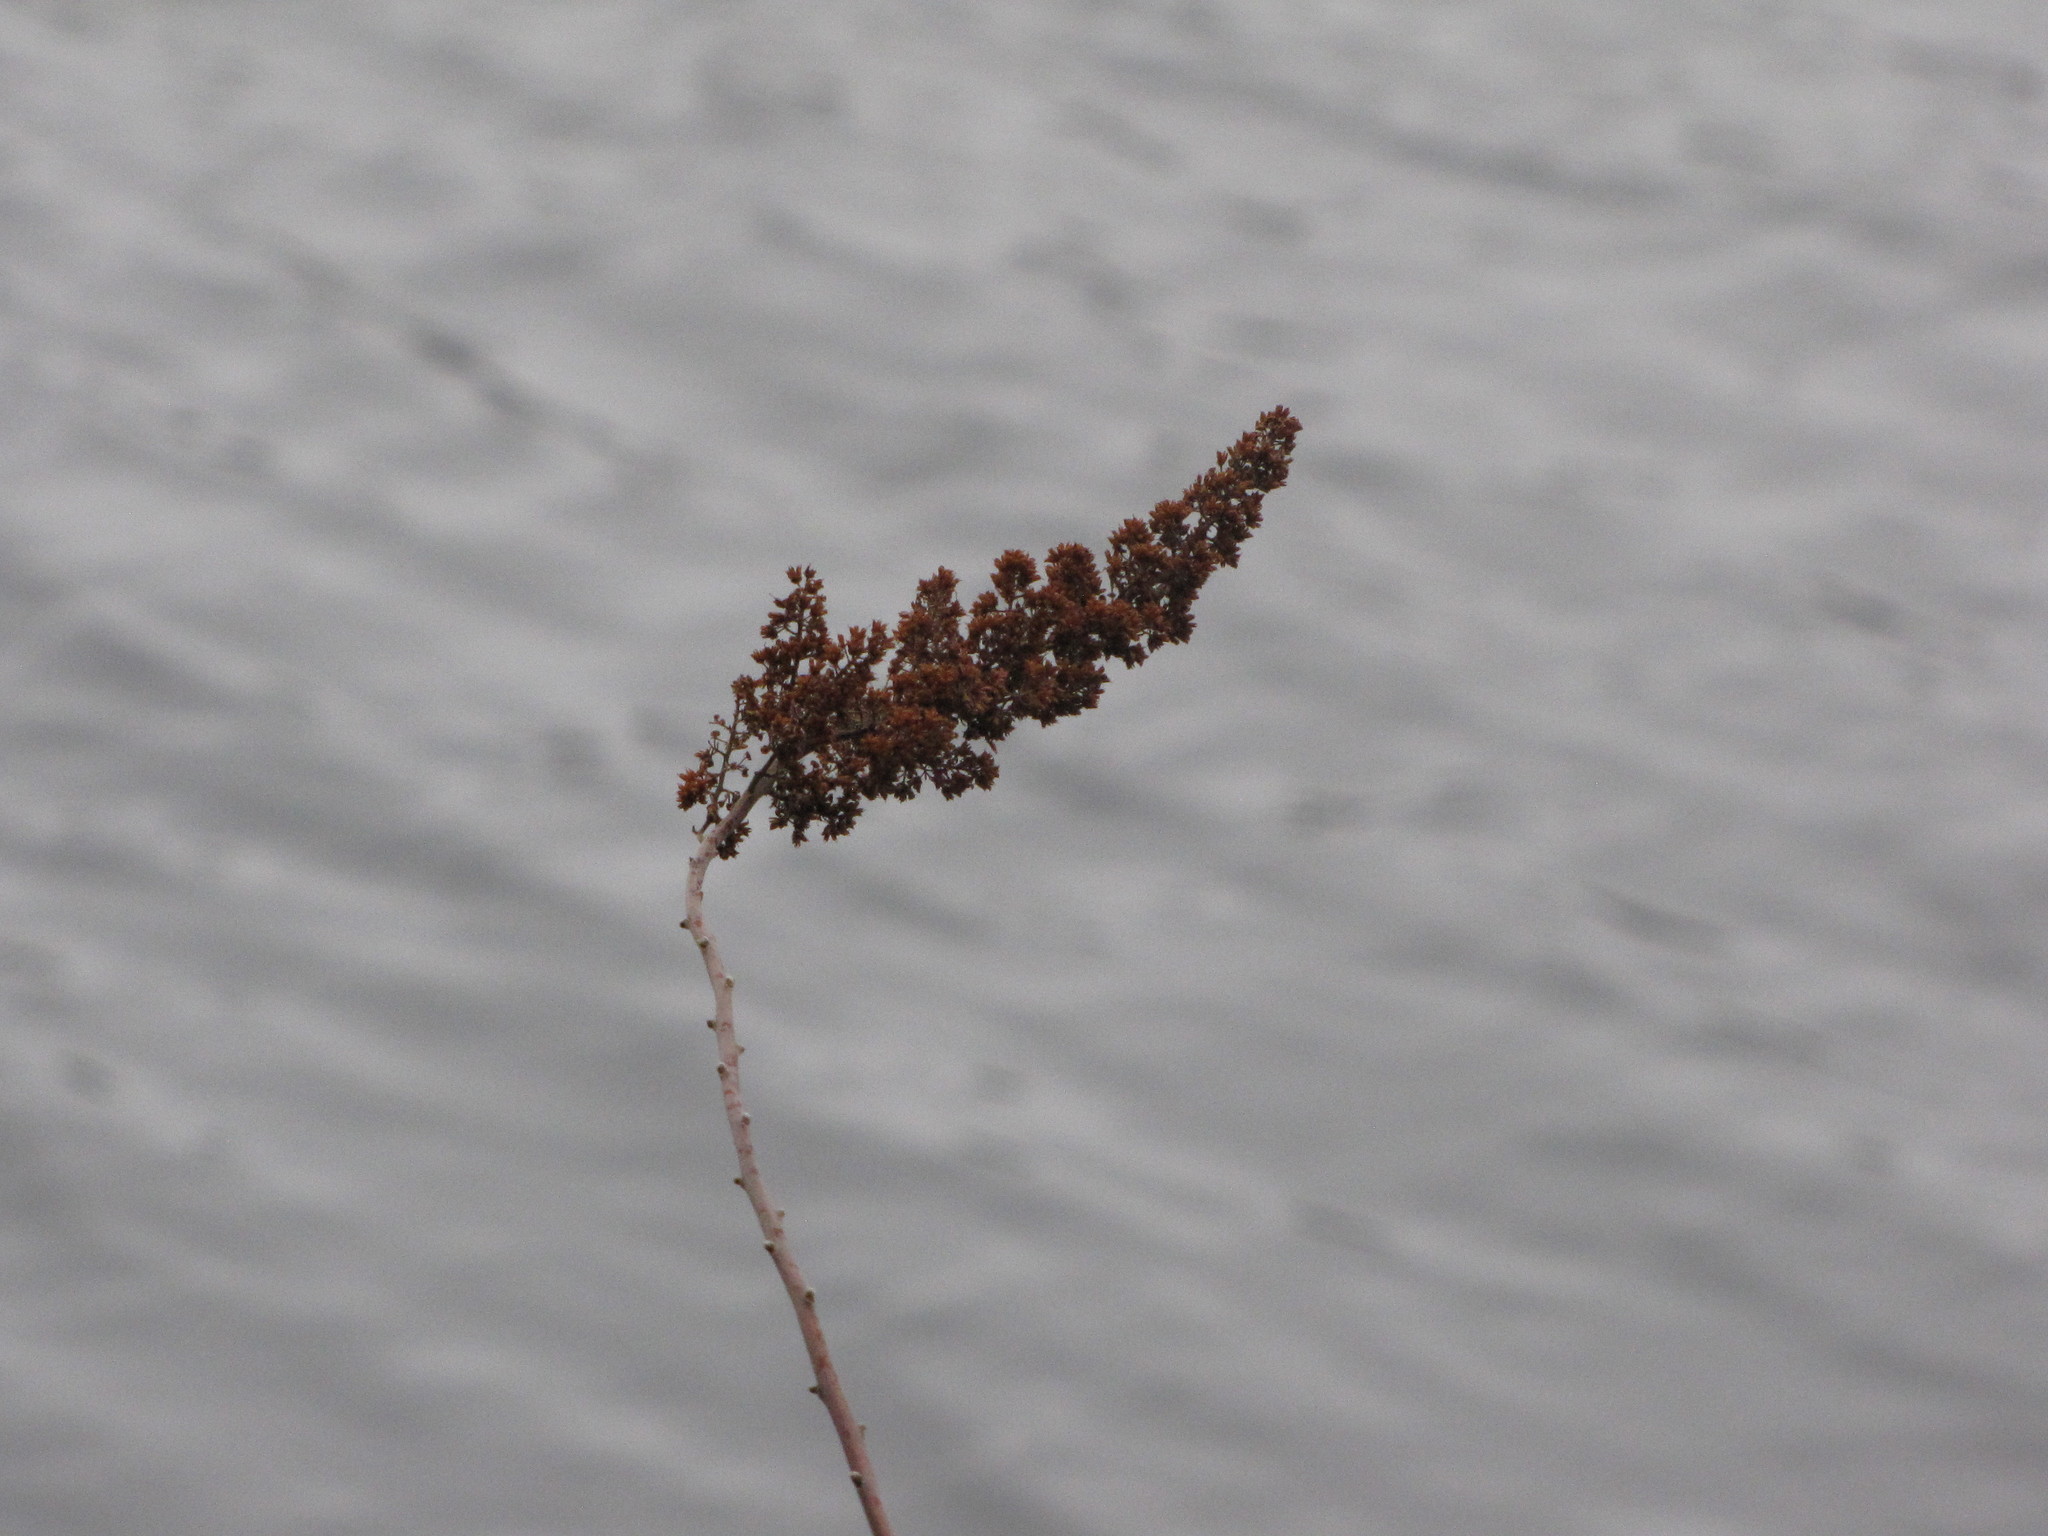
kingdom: Plantae
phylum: Tracheophyta
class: Magnoliopsida
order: Rosales
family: Rosaceae
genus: Spiraea
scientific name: Spiraea douglasii
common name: Steeplebush
